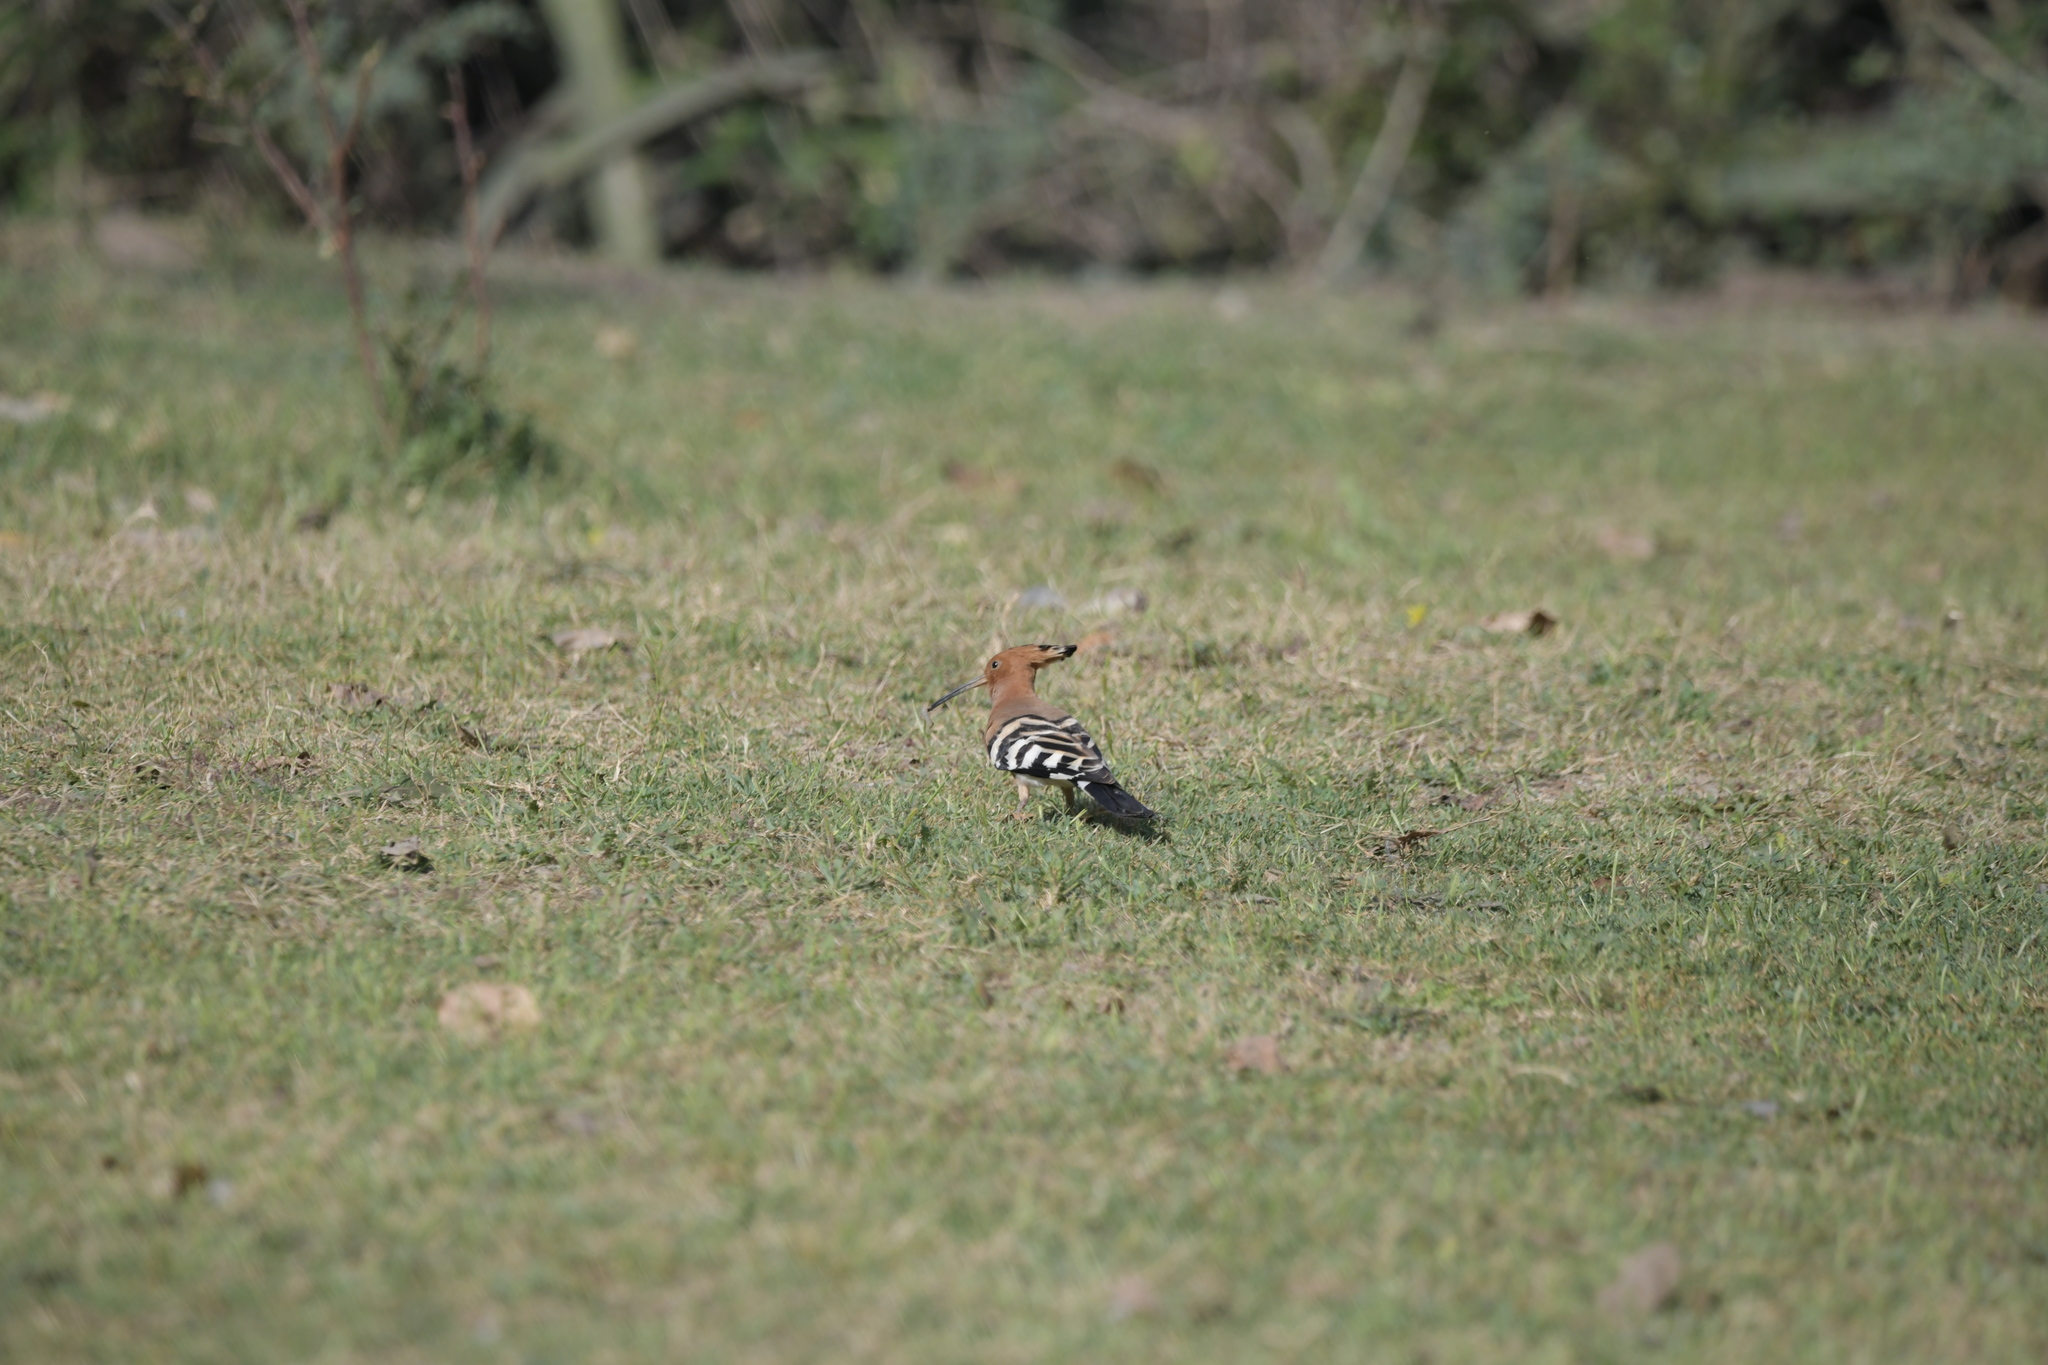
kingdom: Animalia
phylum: Chordata
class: Aves
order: Bucerotiformes
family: Upupidae
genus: Upupa
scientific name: Upupa epops
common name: Eurasian hoopoe
